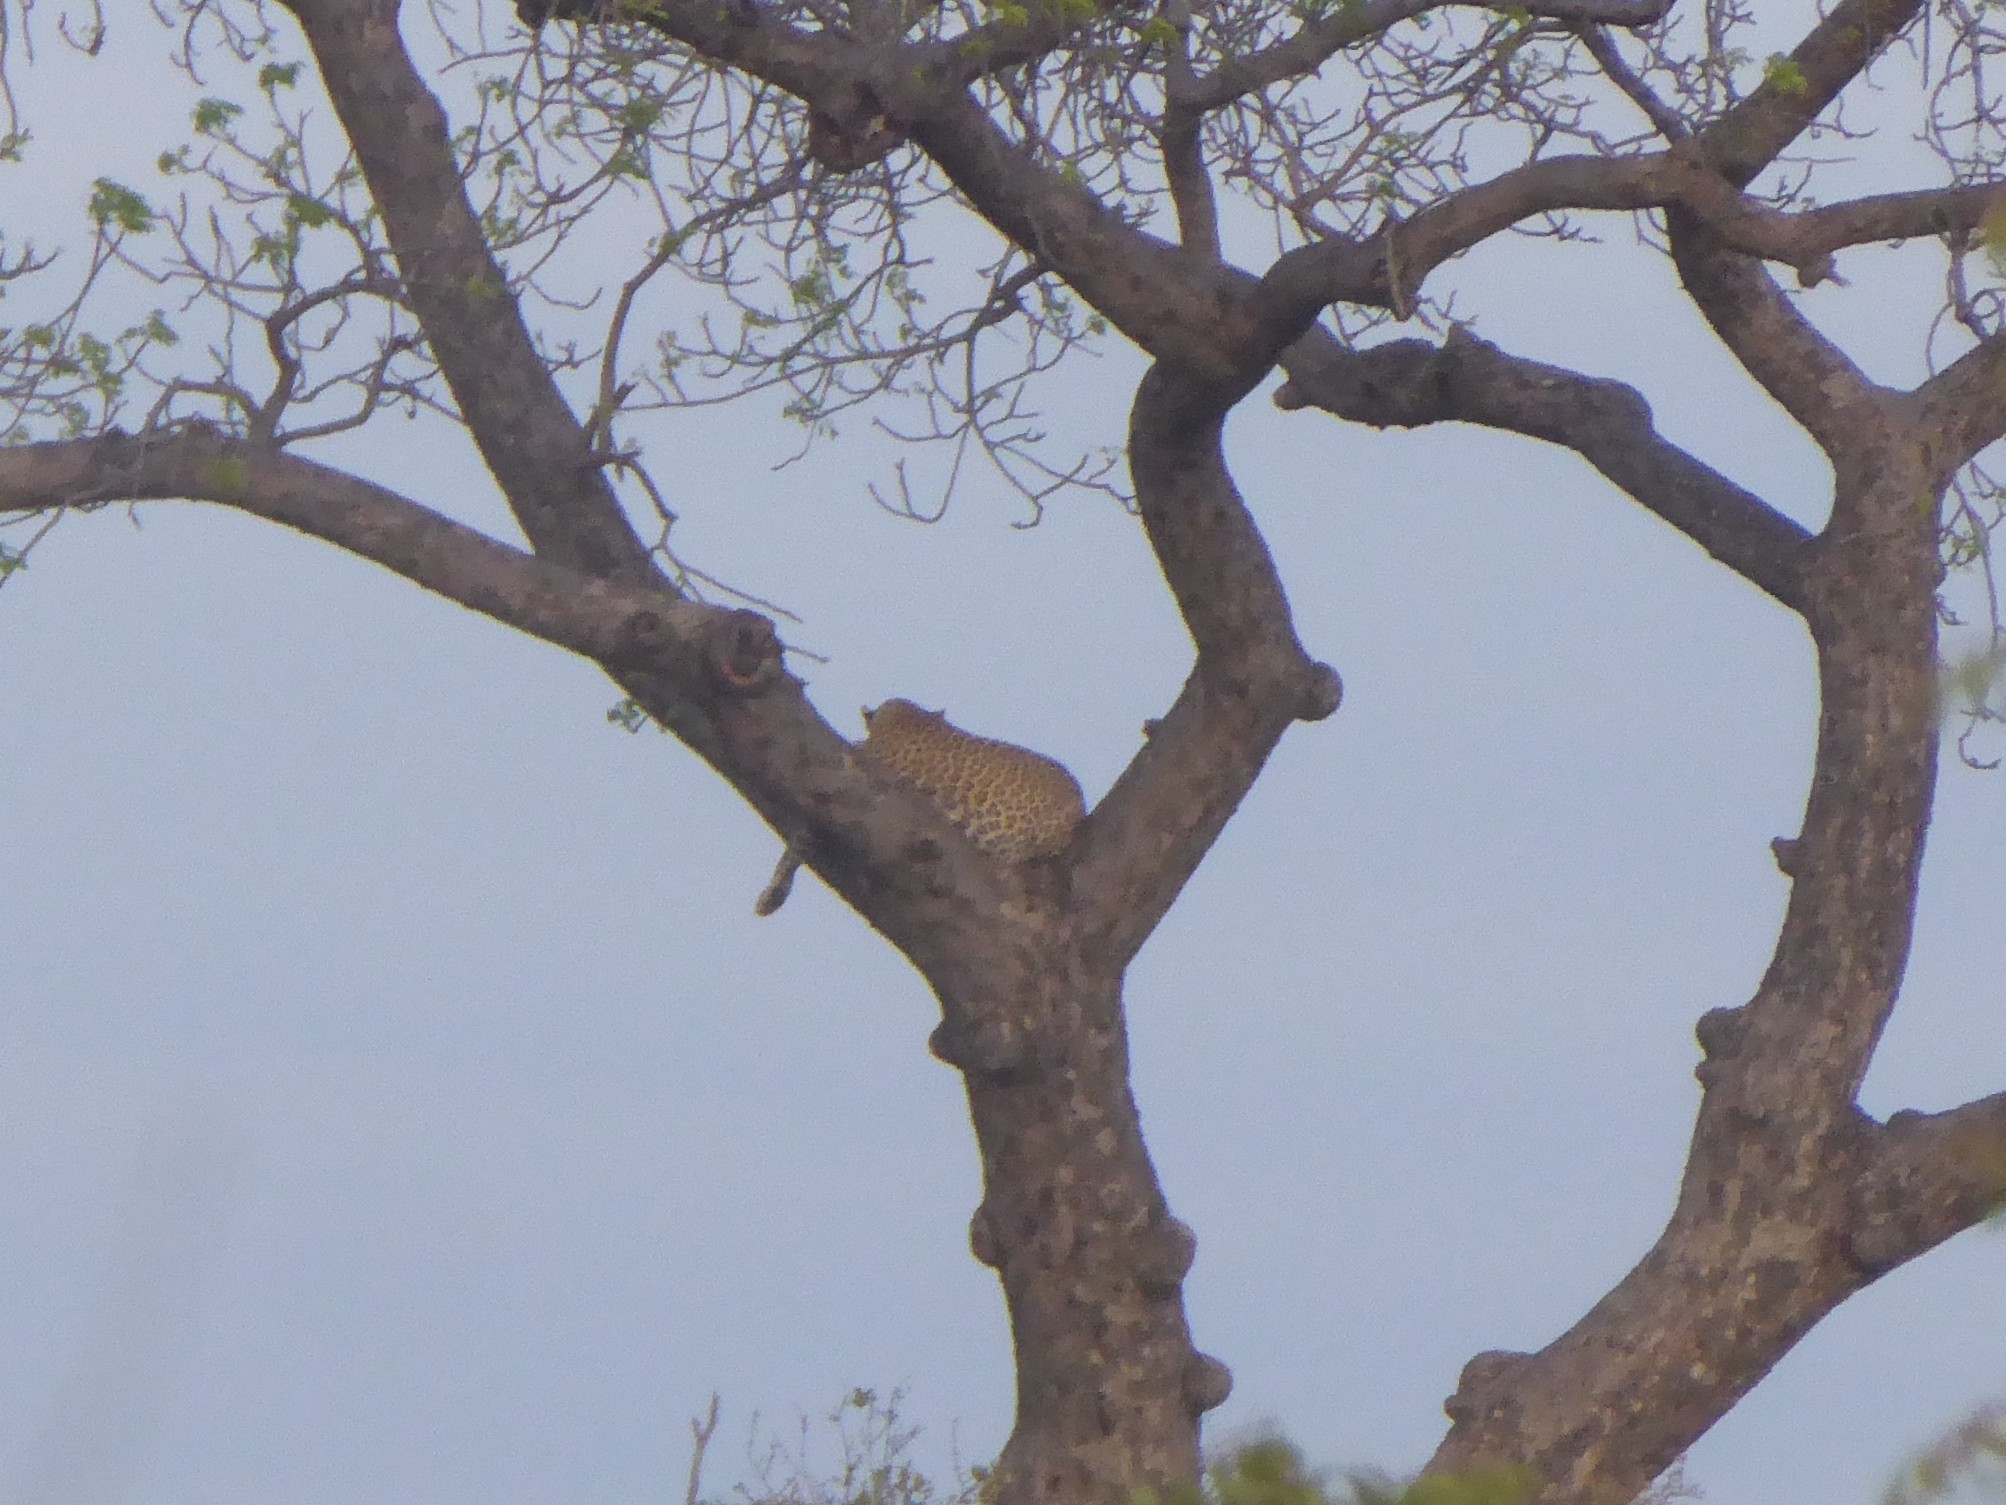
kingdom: Animalia
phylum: Chordata
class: Mammalia
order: Carnivora
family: Felidae
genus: Panthera
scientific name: Panthera pardus
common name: Leopard
